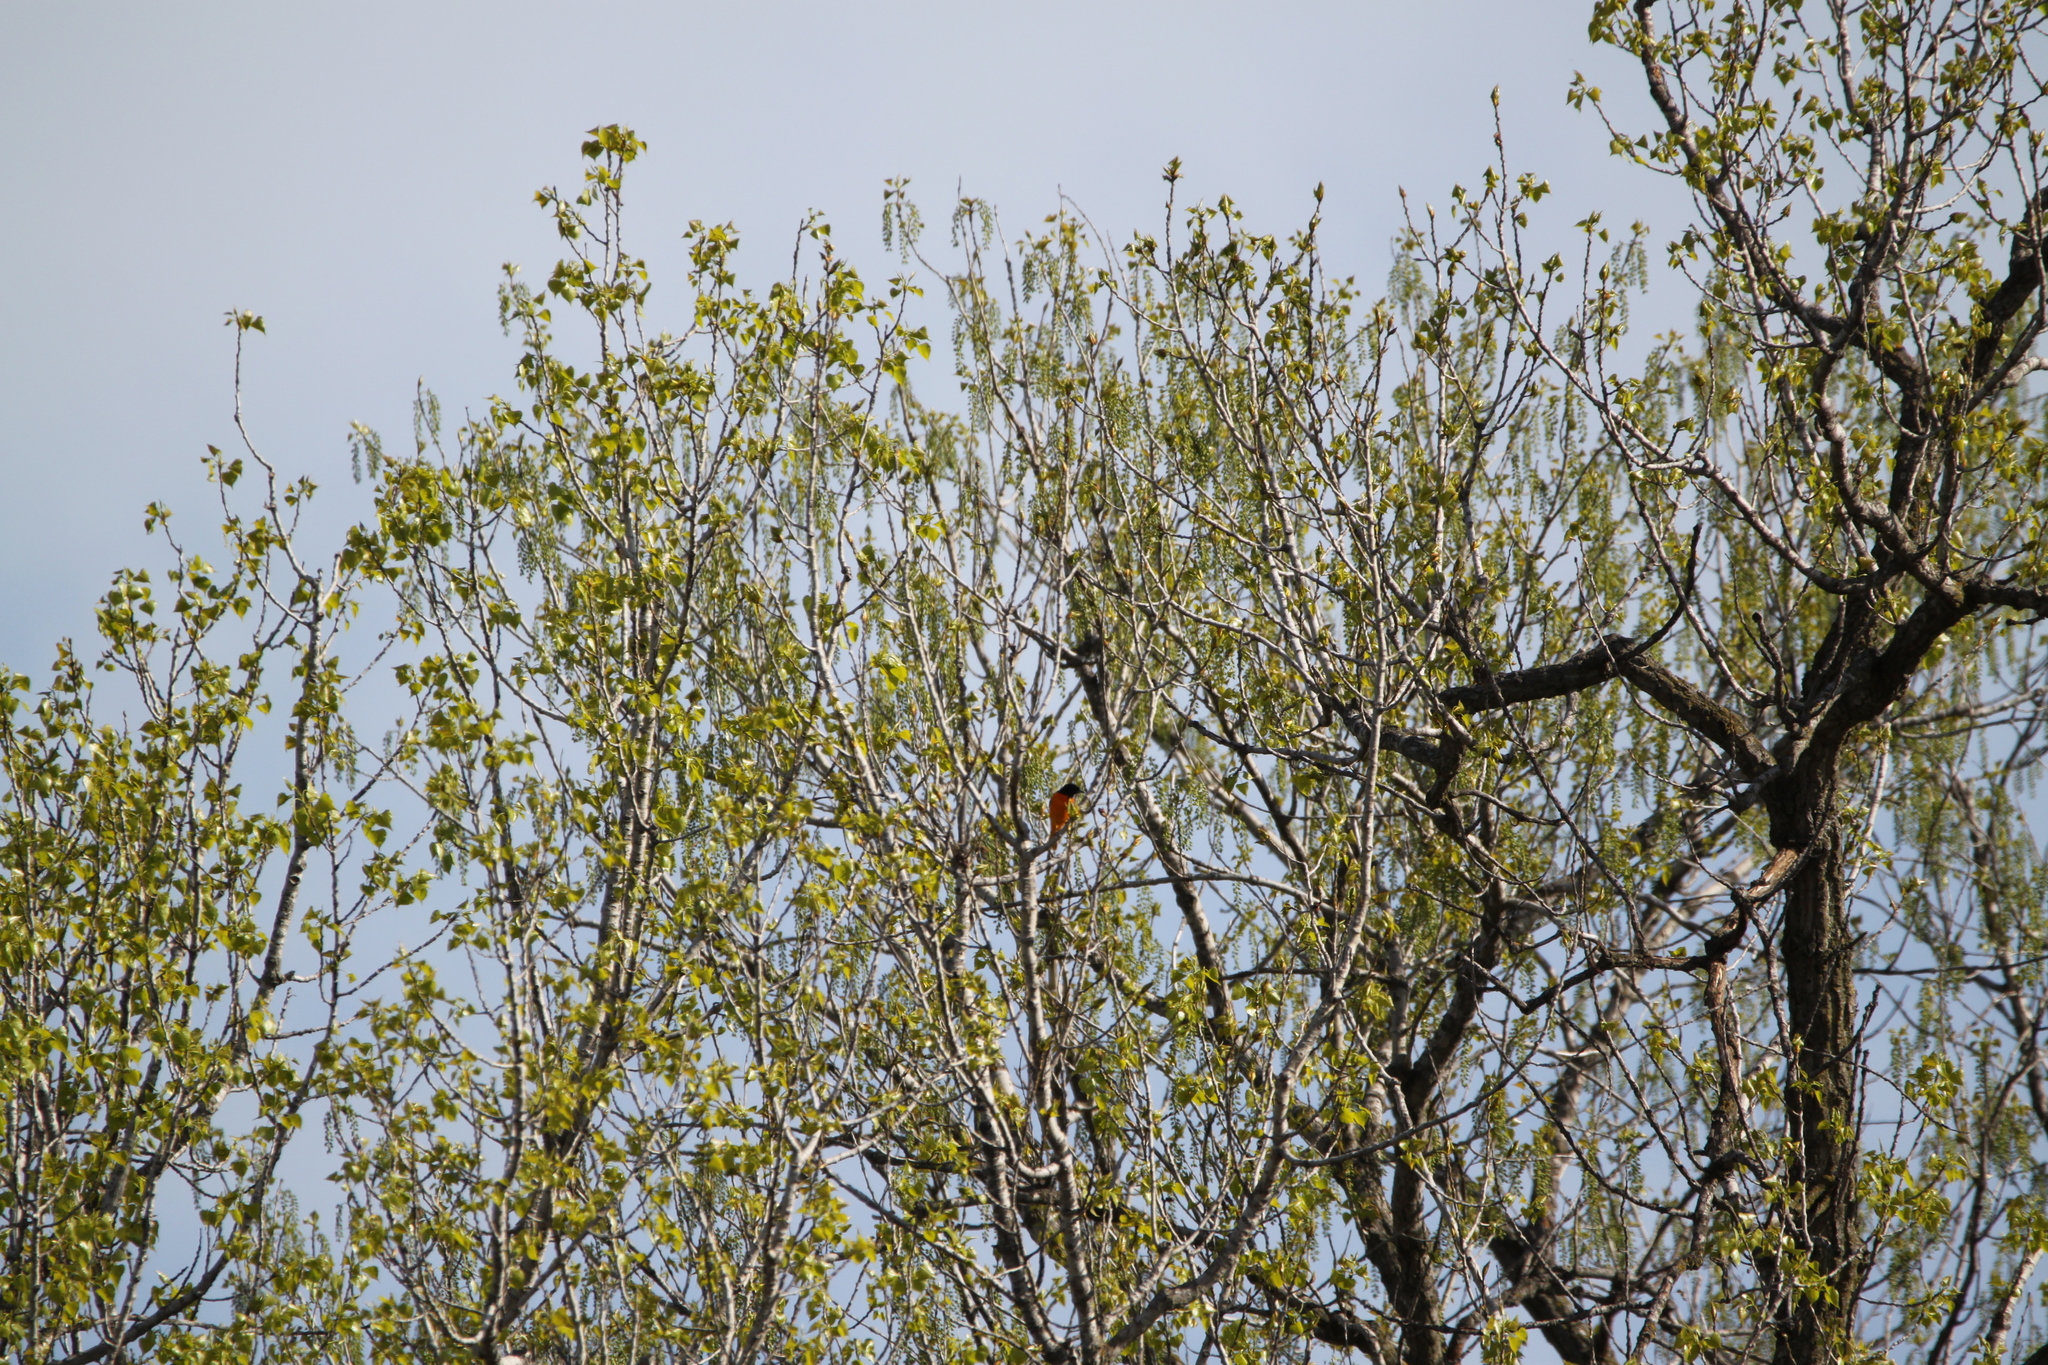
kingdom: Animalia
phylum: Chordata
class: Aves
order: Passeriformes
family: Icteridae
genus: Icterus
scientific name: Icterus galbula
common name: Baltimore oriole
